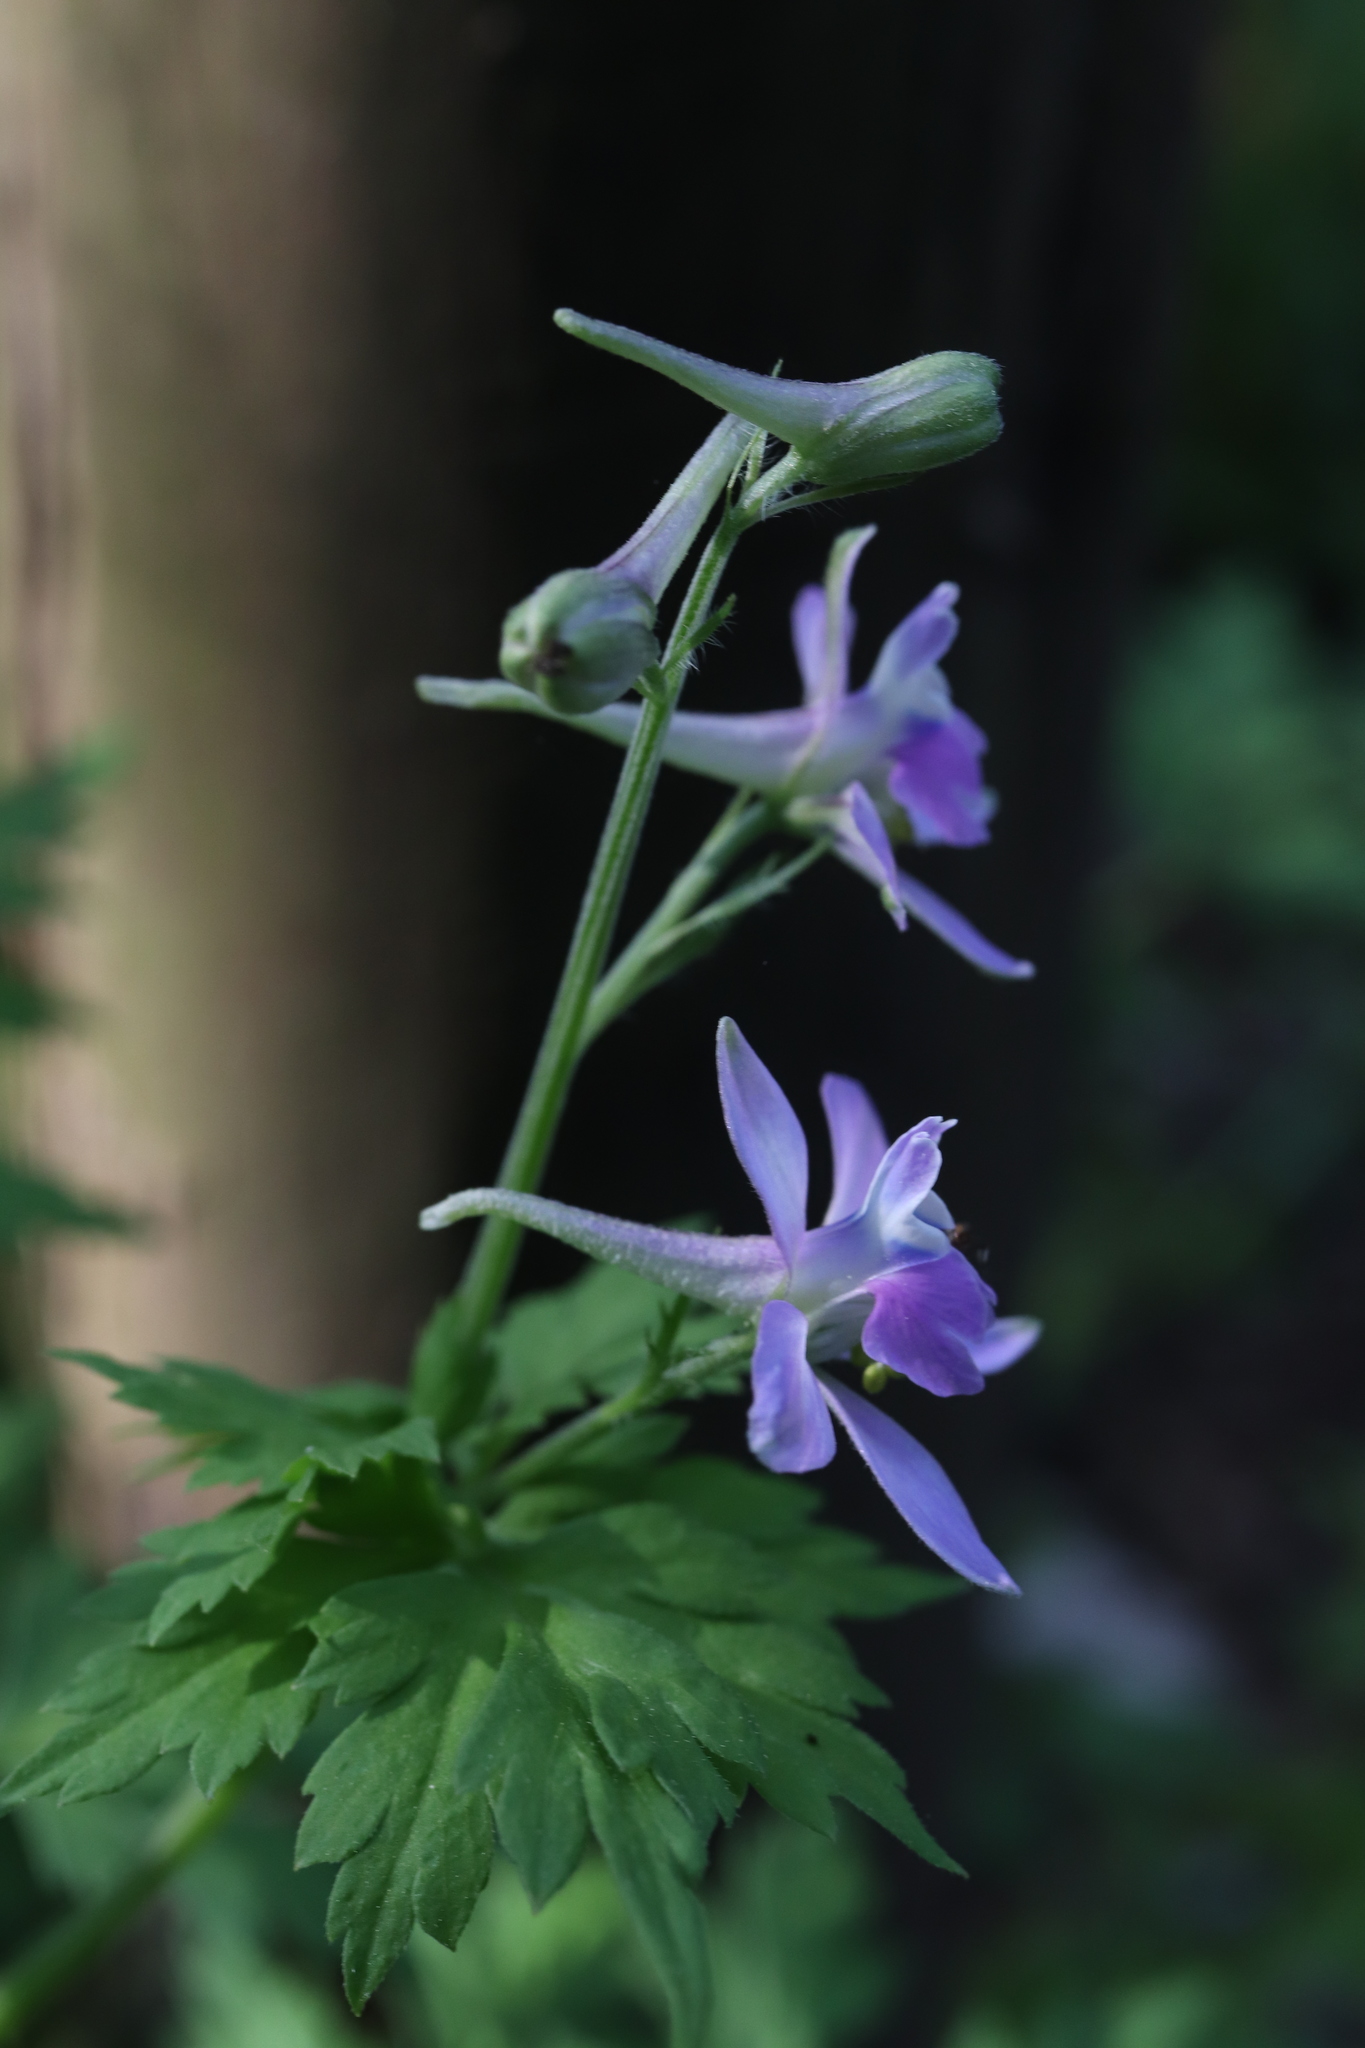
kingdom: Plantae
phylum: Tracheophyta
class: Magnoliopsida
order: Ranunculales
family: Ranunculaceae
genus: Delphinium
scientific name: Delphinium anthriscifolium
